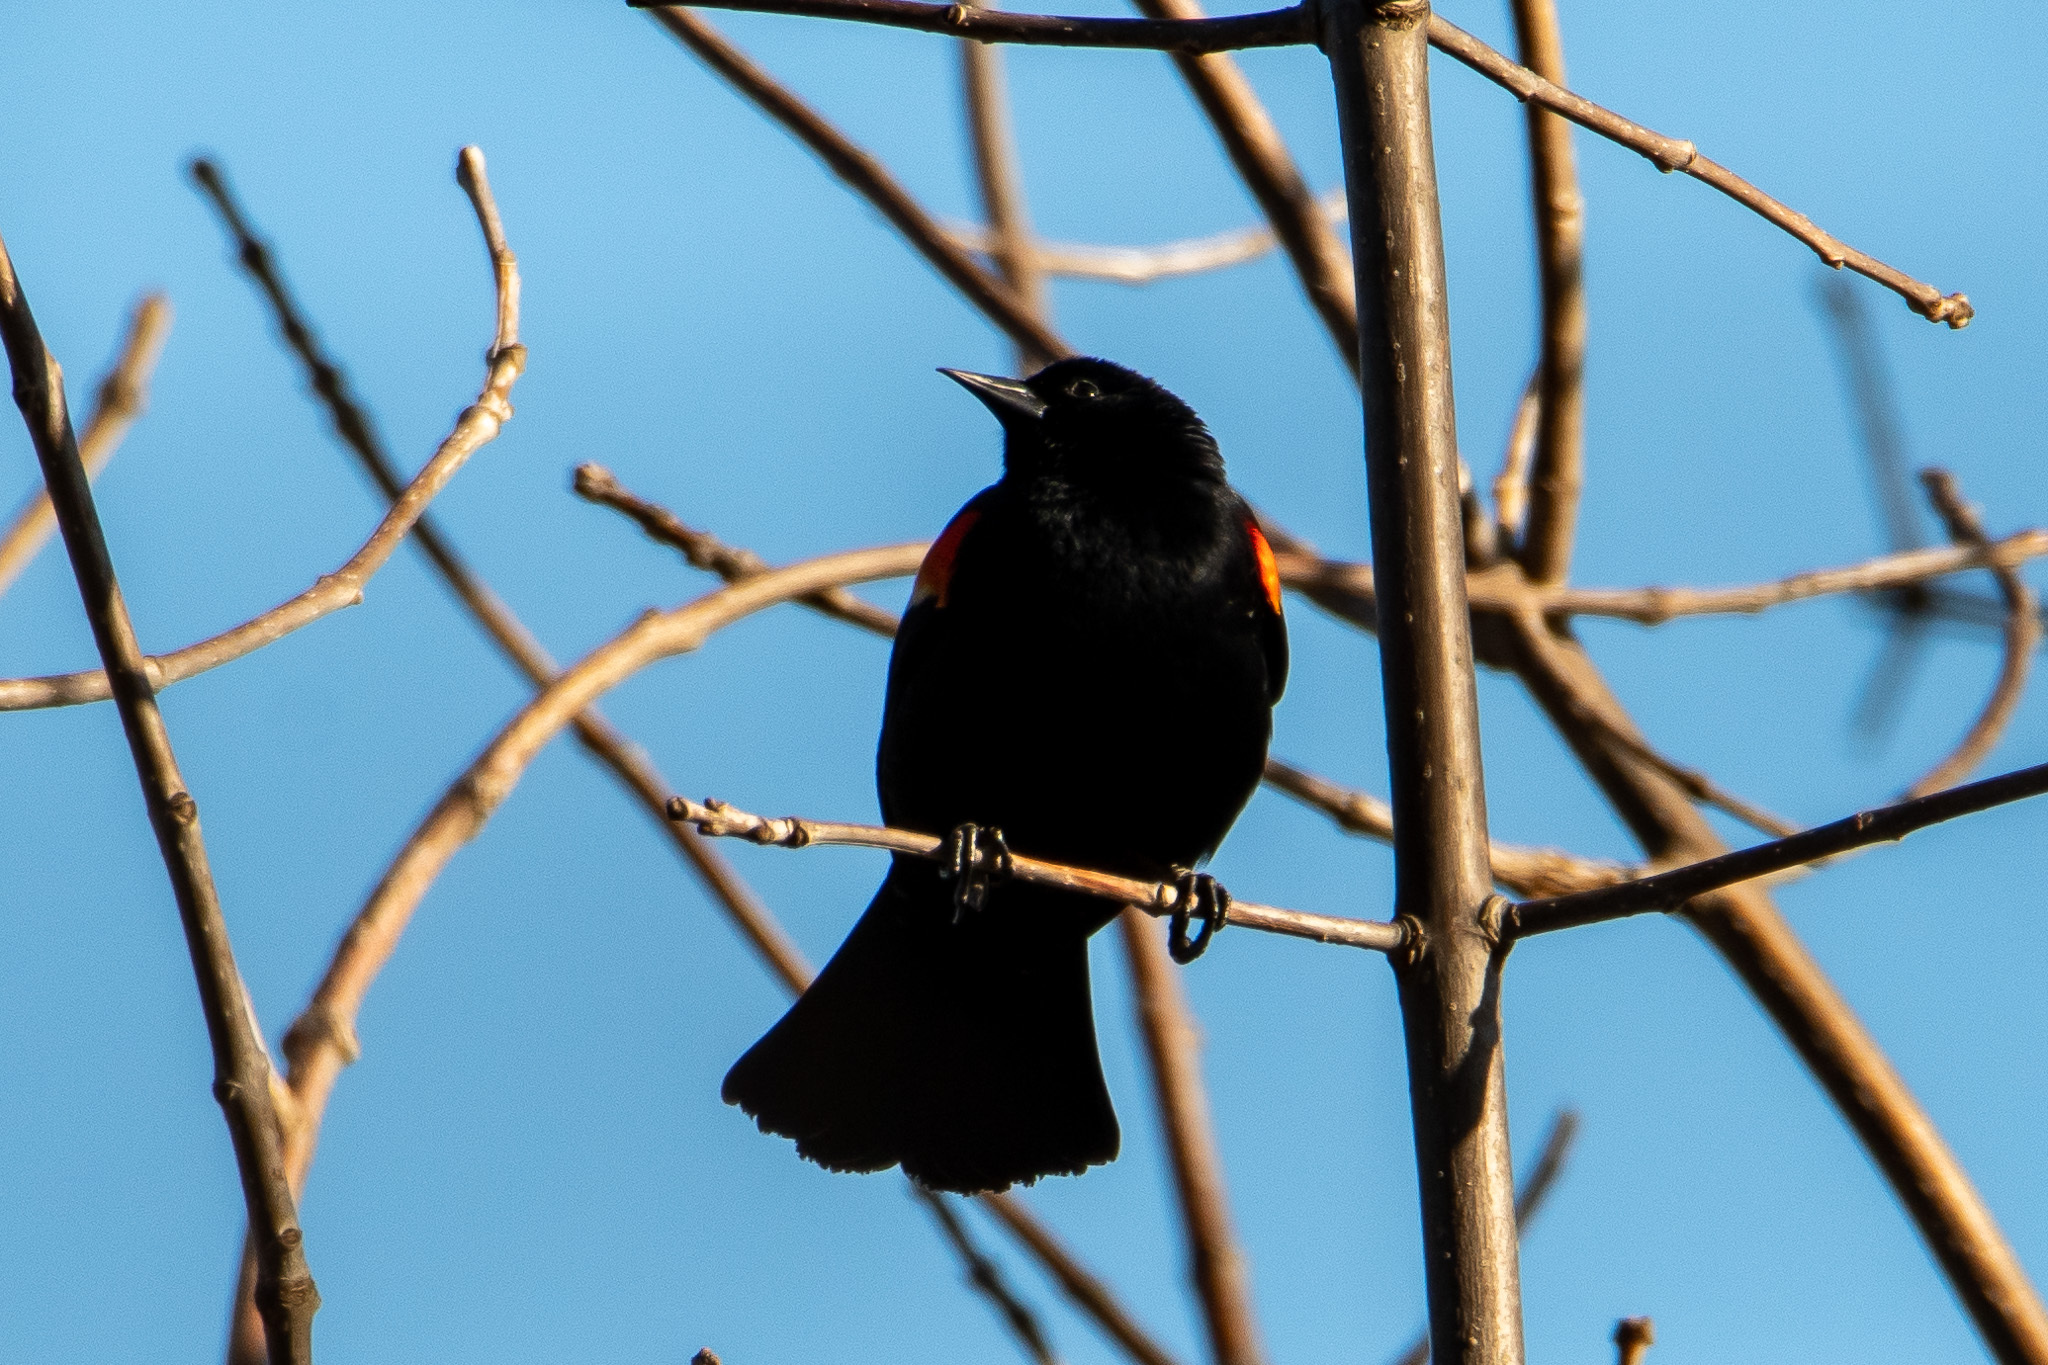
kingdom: Animalia
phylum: Chordata
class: Aves
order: Passeriformes
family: Icteridae
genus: Agelaius
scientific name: Agelaius phoeniceus
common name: Red-winged blackbird
